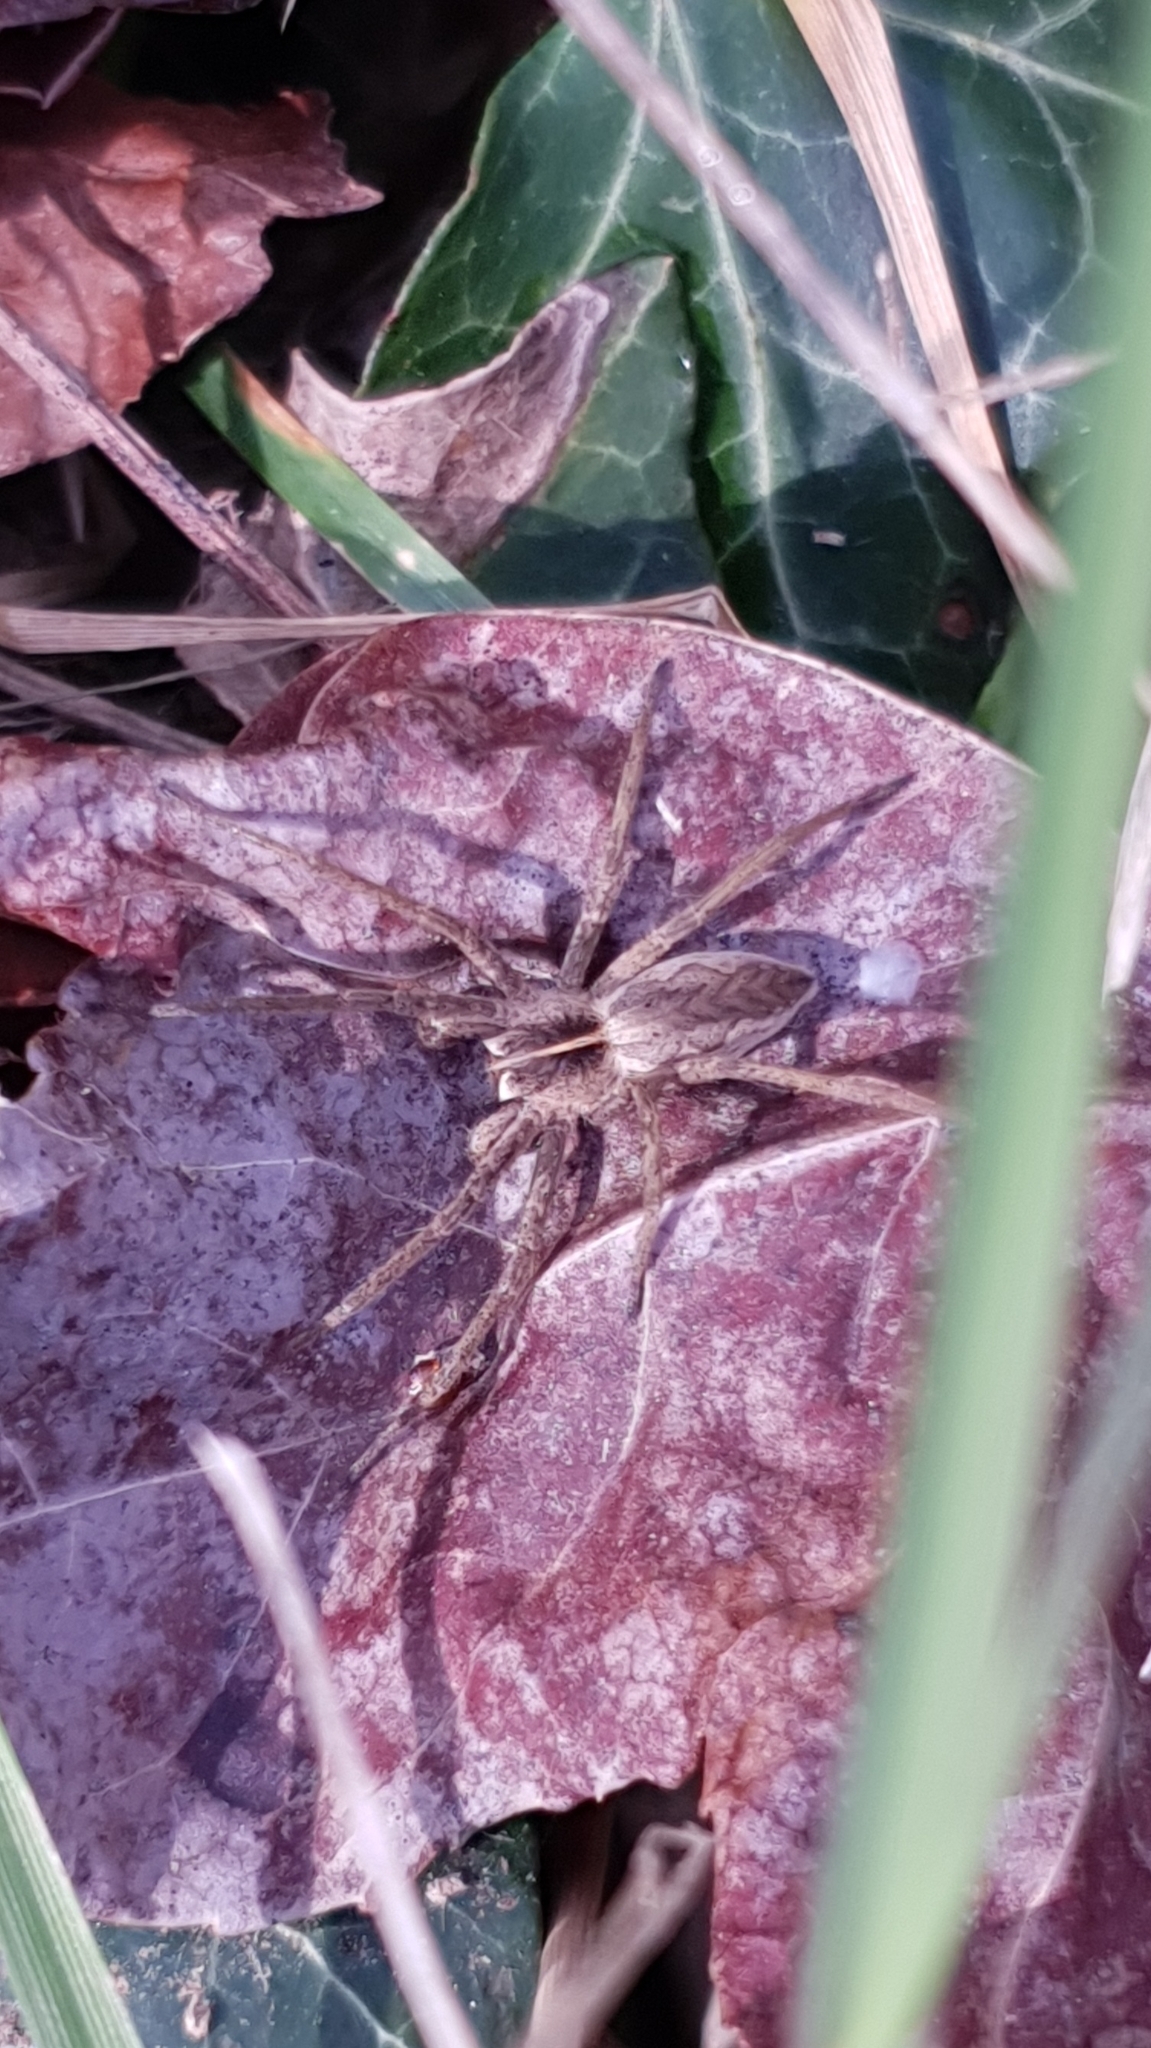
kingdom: Animalia
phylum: Arthropoda
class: Arachnida
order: Araneae
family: Pisauridae
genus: Pisaura
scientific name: Pisaura mirabilis
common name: Tent spider
